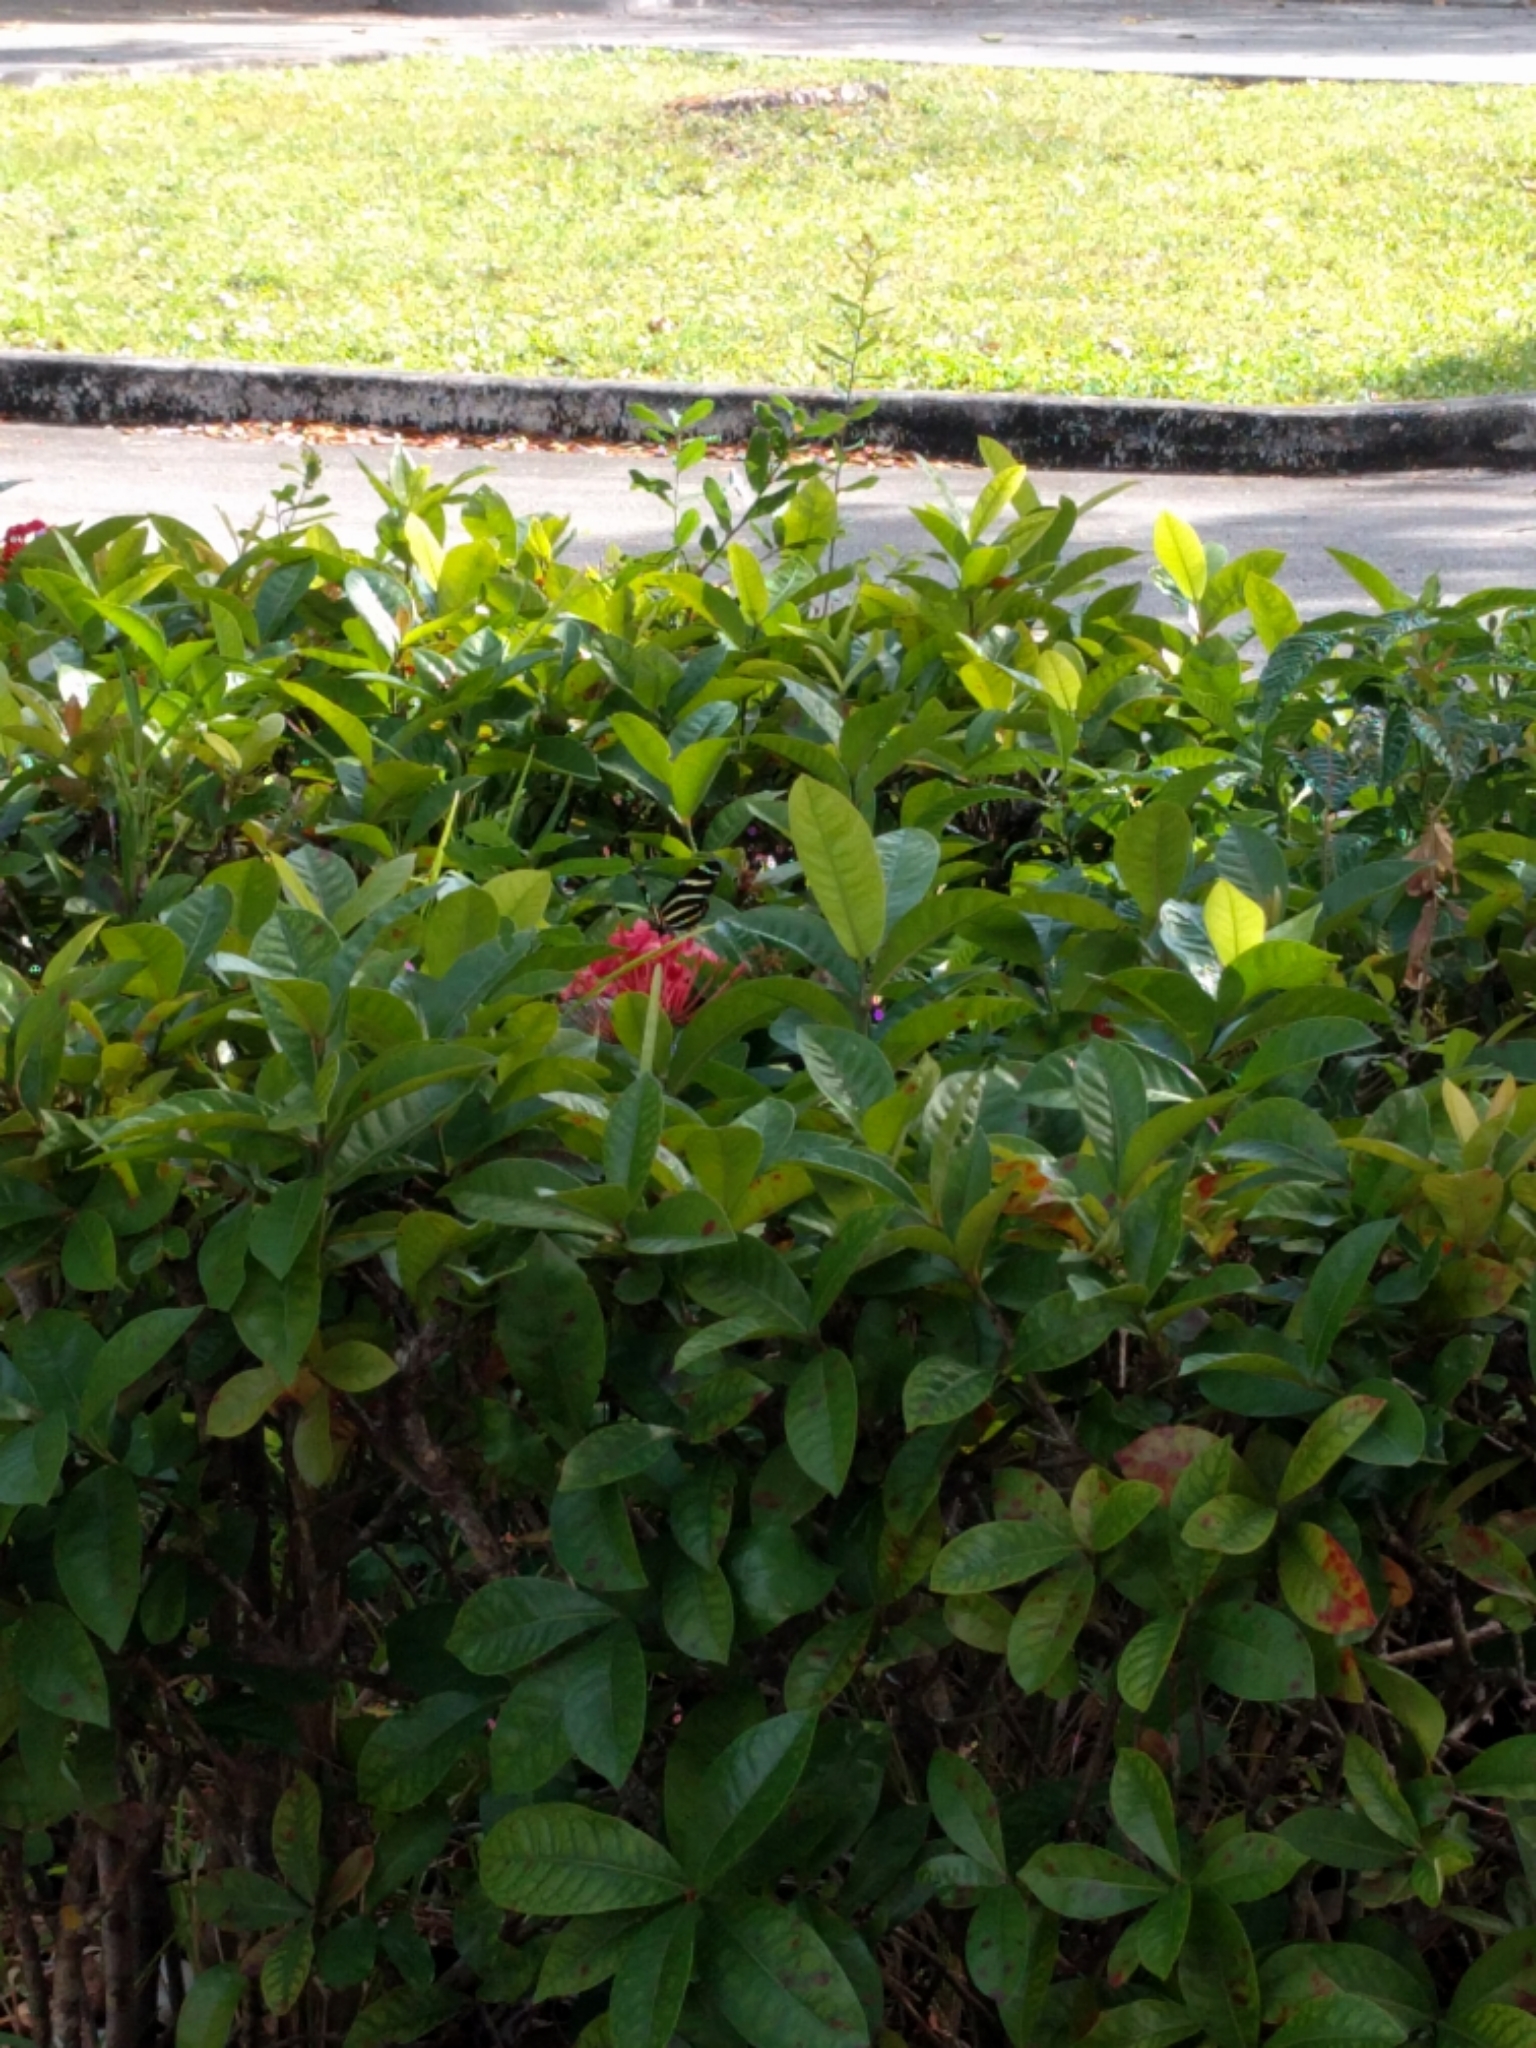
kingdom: Animalia
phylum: Arthropoda
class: Insecta
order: Lepidoptera
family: Nymphalidae
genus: Heliconius
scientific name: Heliconius charithonia
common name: Zebra long wing
